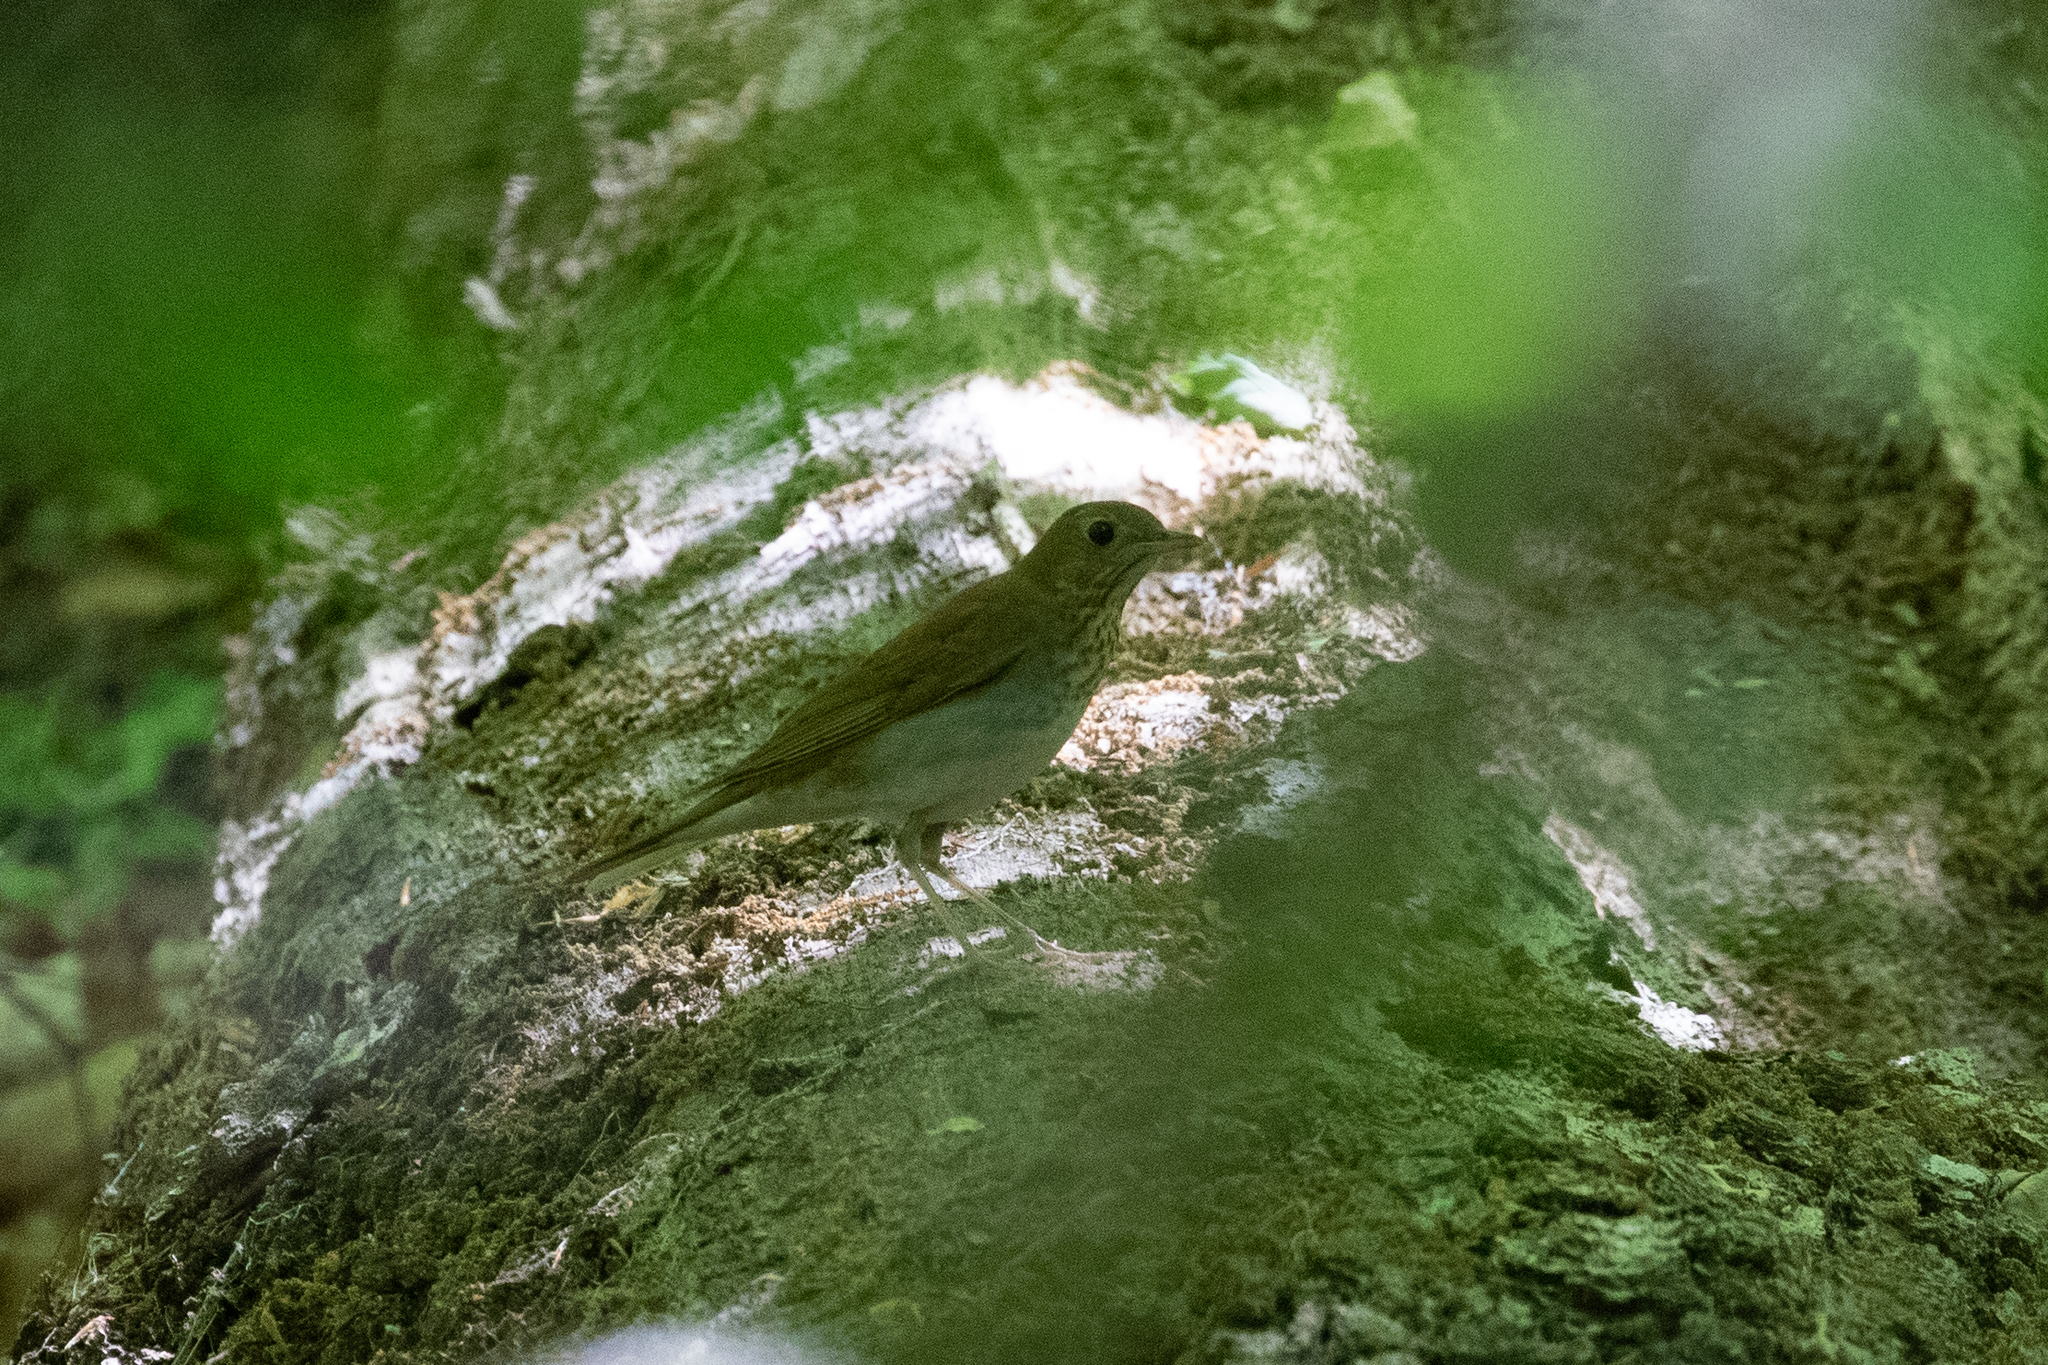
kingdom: Animalia
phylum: Chordata
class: Aves
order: Passeriformes
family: Turdidae
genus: Catharus
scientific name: Catharus fuscescens
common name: Veery
